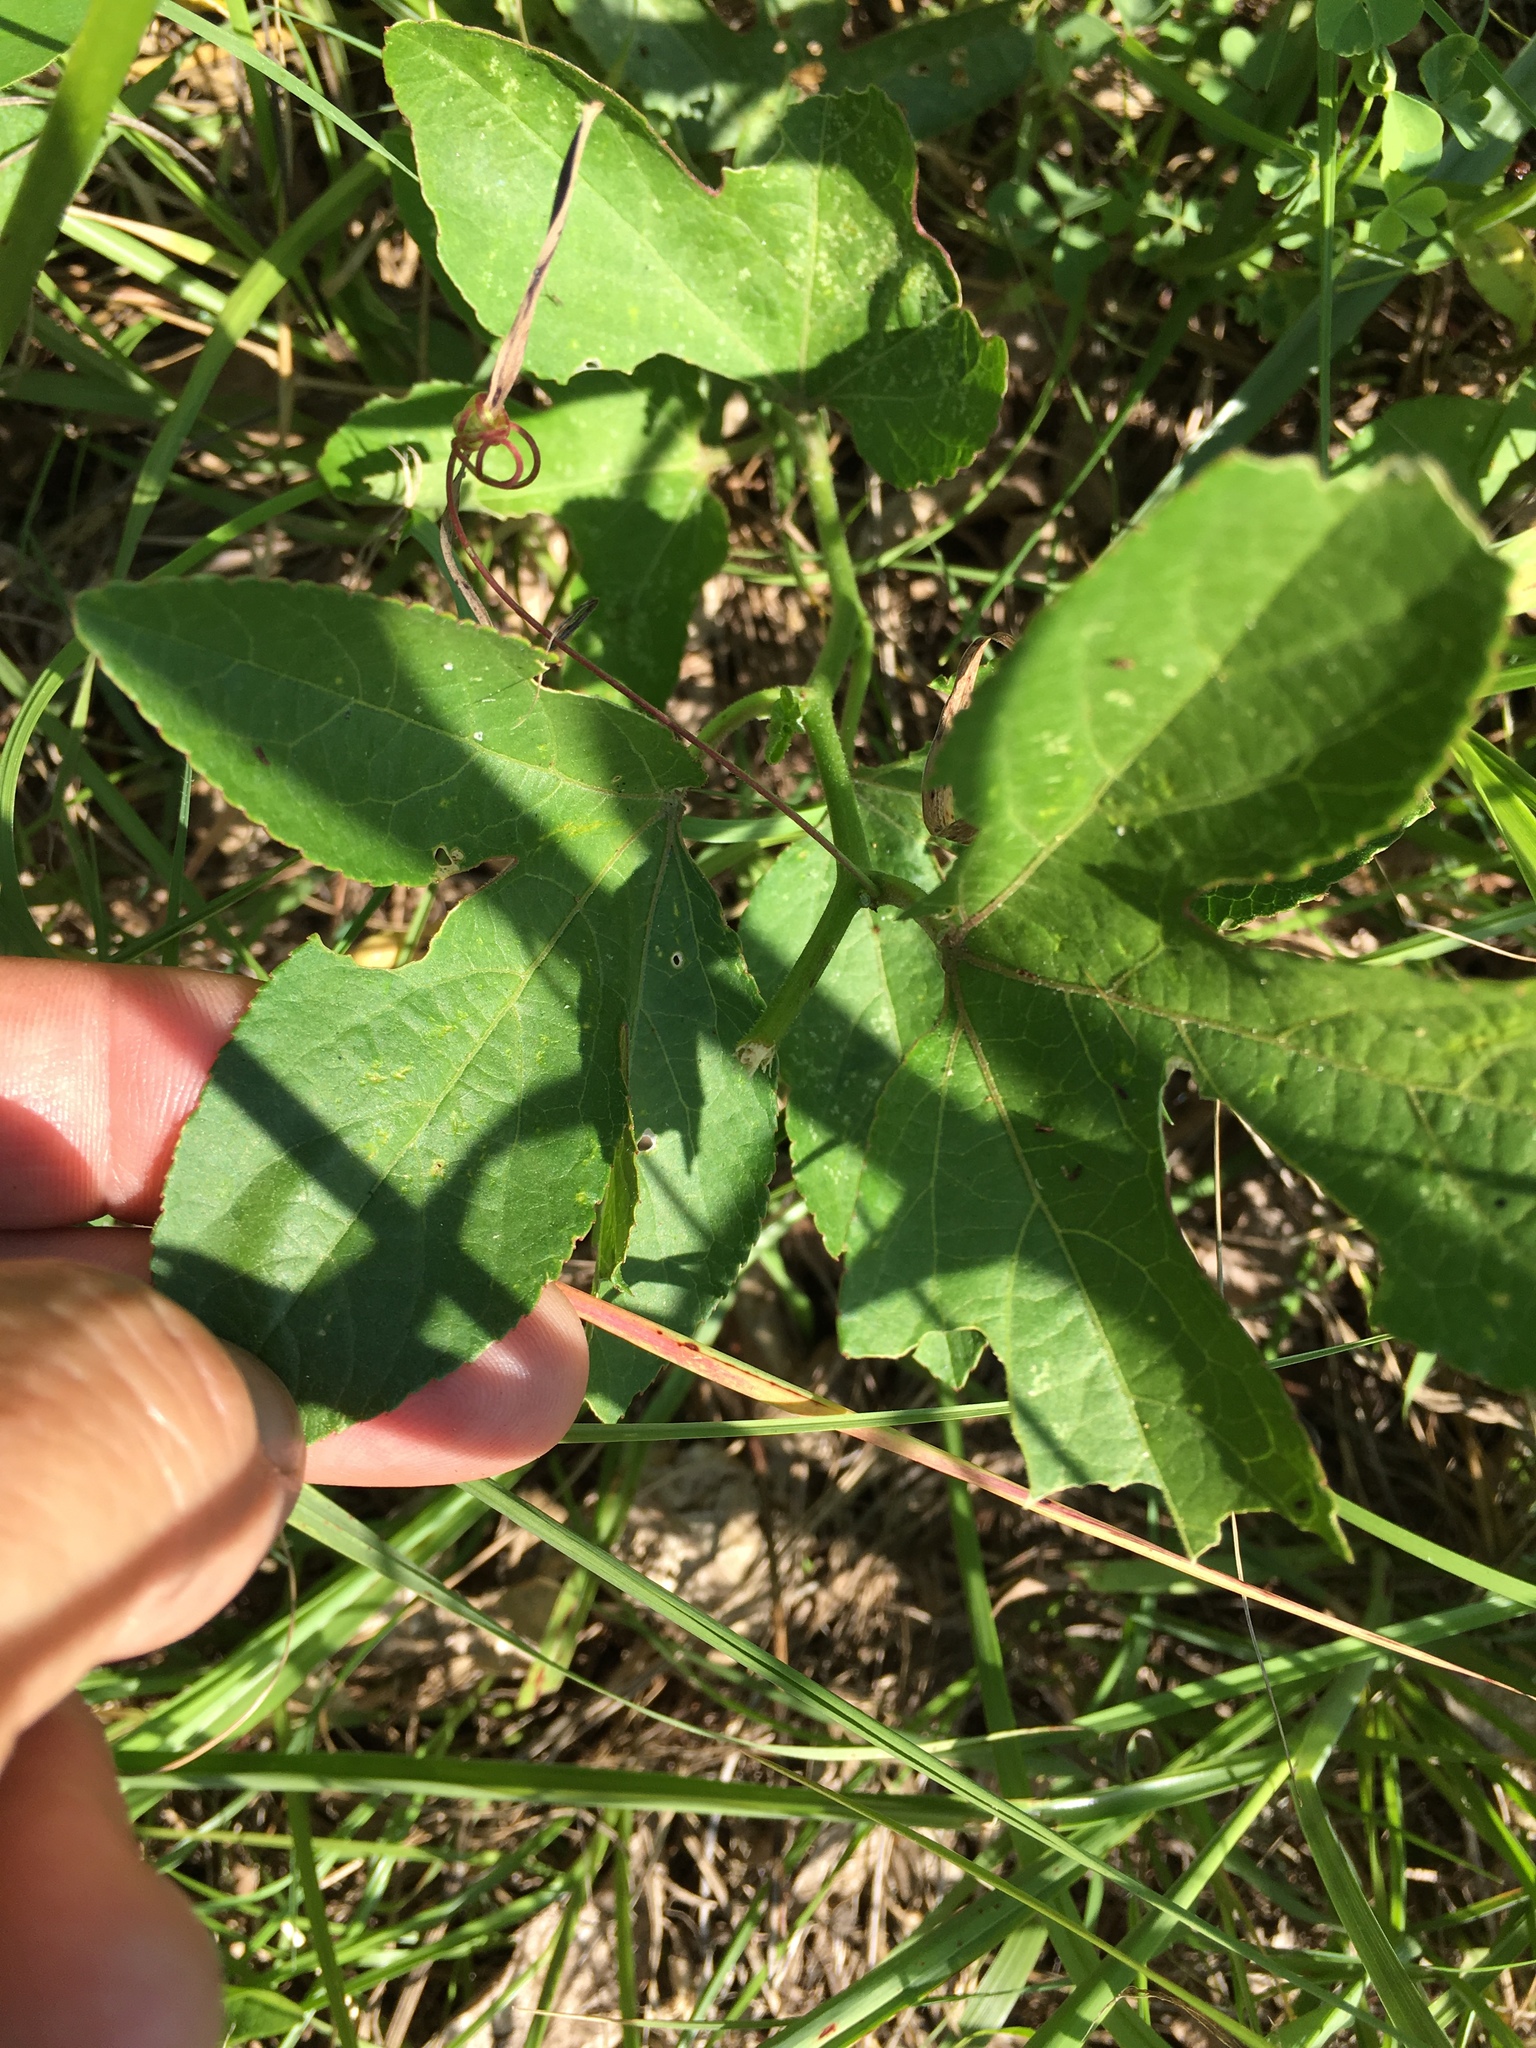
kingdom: Plantae
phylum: Tracheophyta
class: Magnoliopsida
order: Malpighiales
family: Passifloraceae
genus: Passiflora
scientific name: Passiflora incarnata
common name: Apricot-vine
